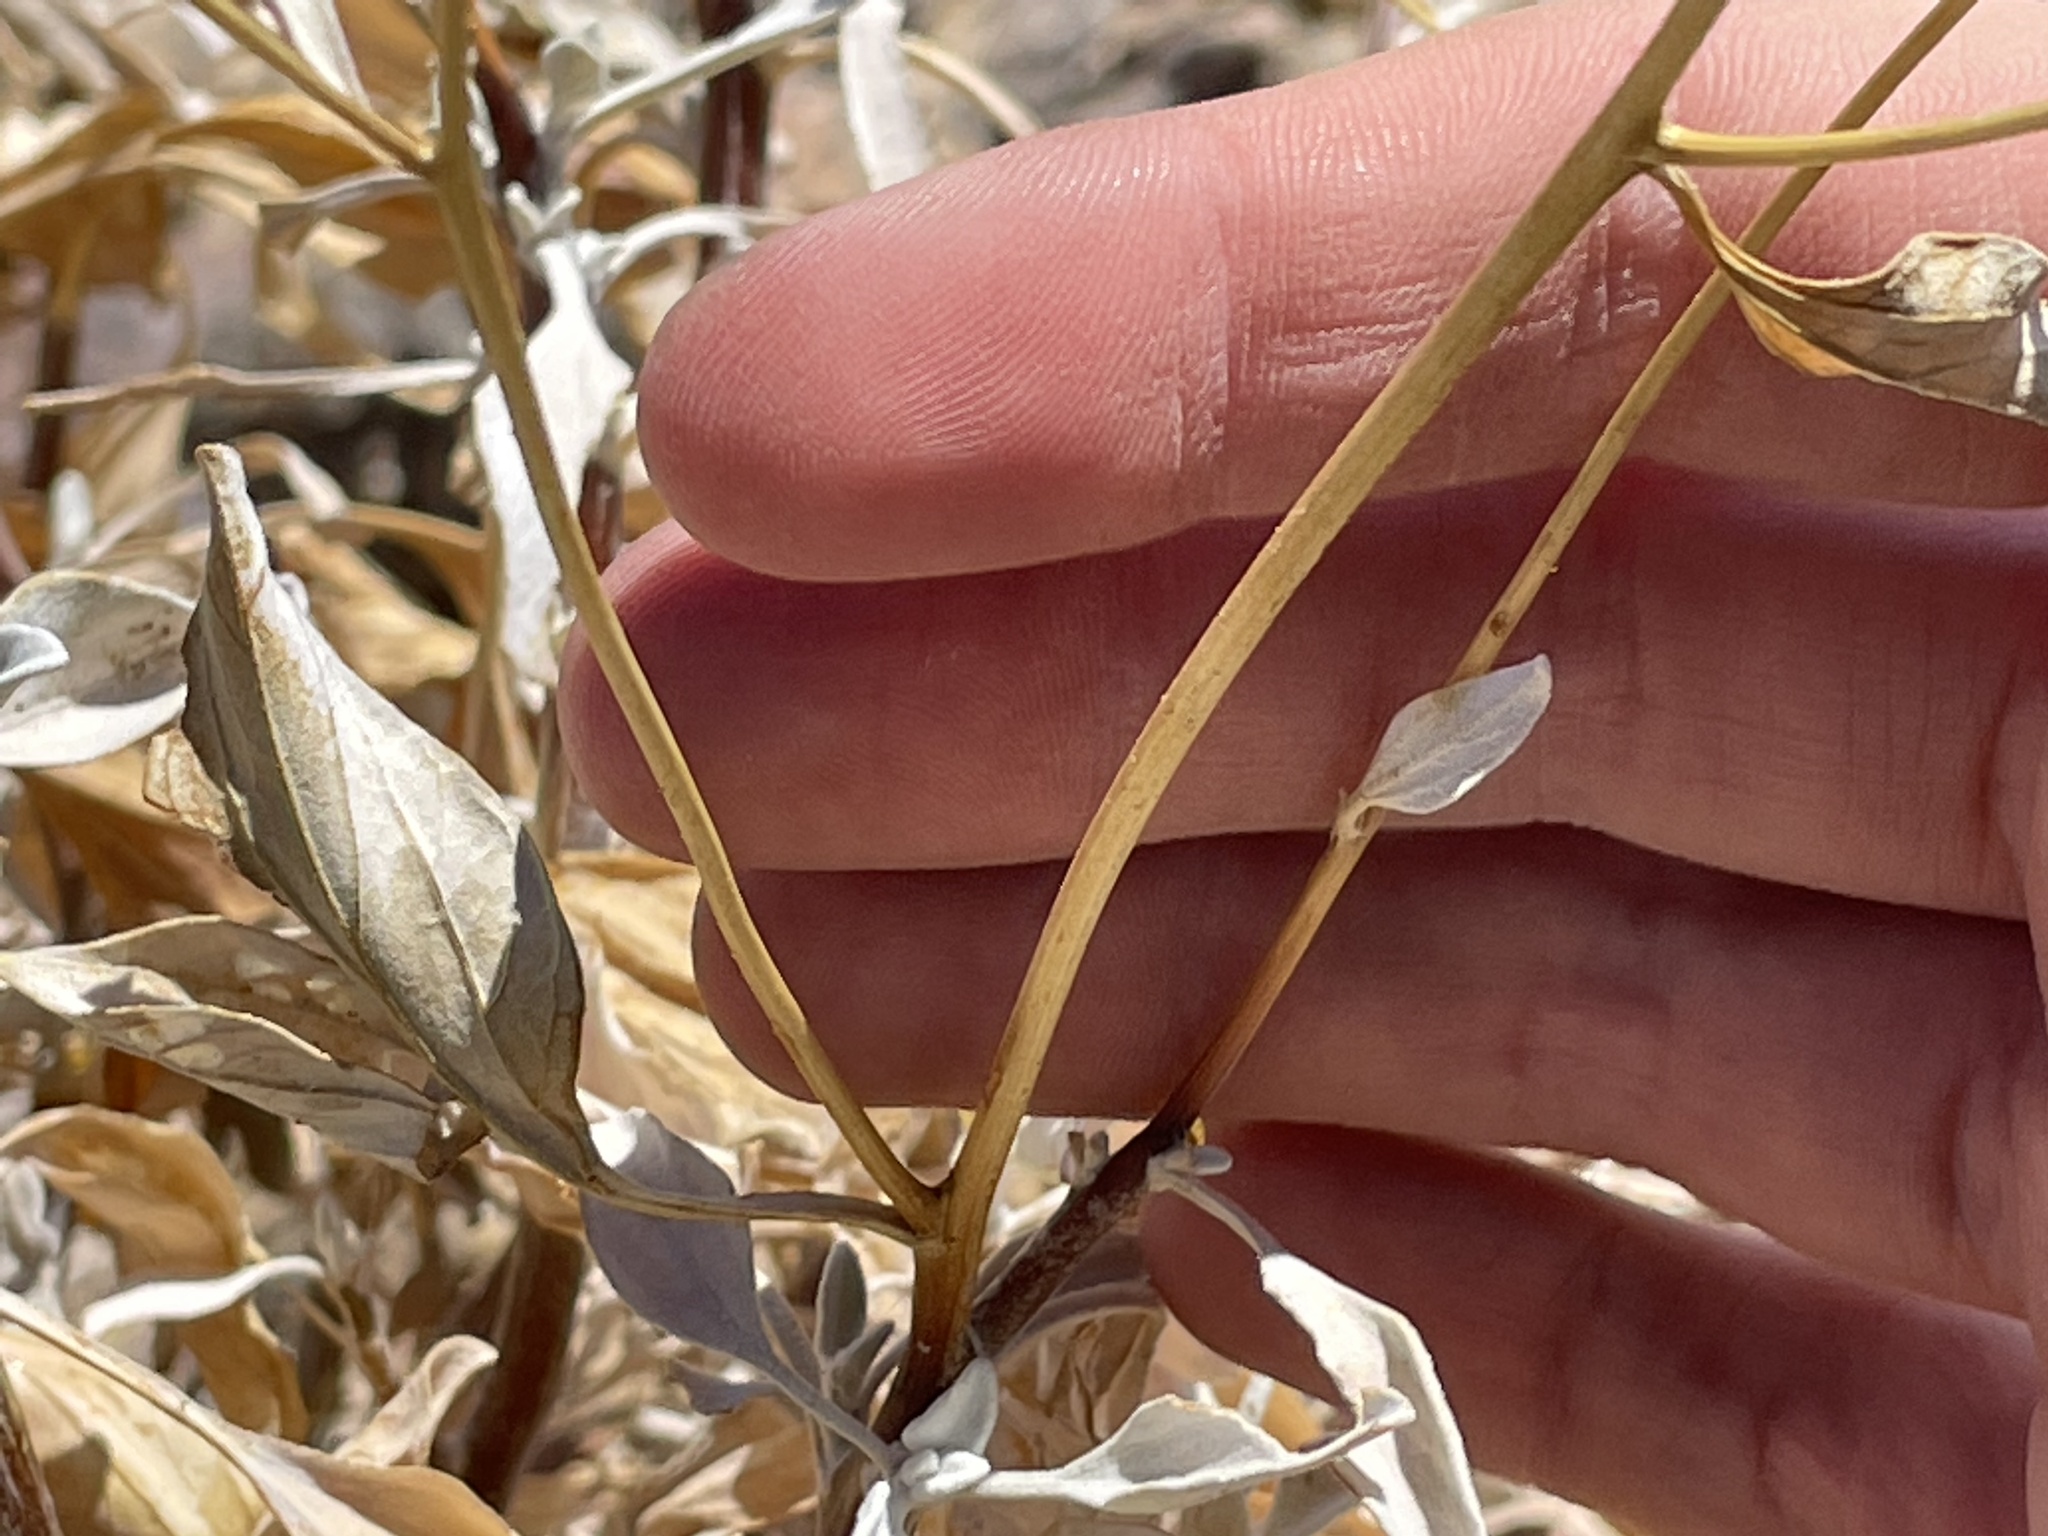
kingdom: Plantae
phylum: Tracheophyta
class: Magnoliopsida
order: Asterales
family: Asteraceae
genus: Encelia
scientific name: Encelia farinosa
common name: Brittlebush
